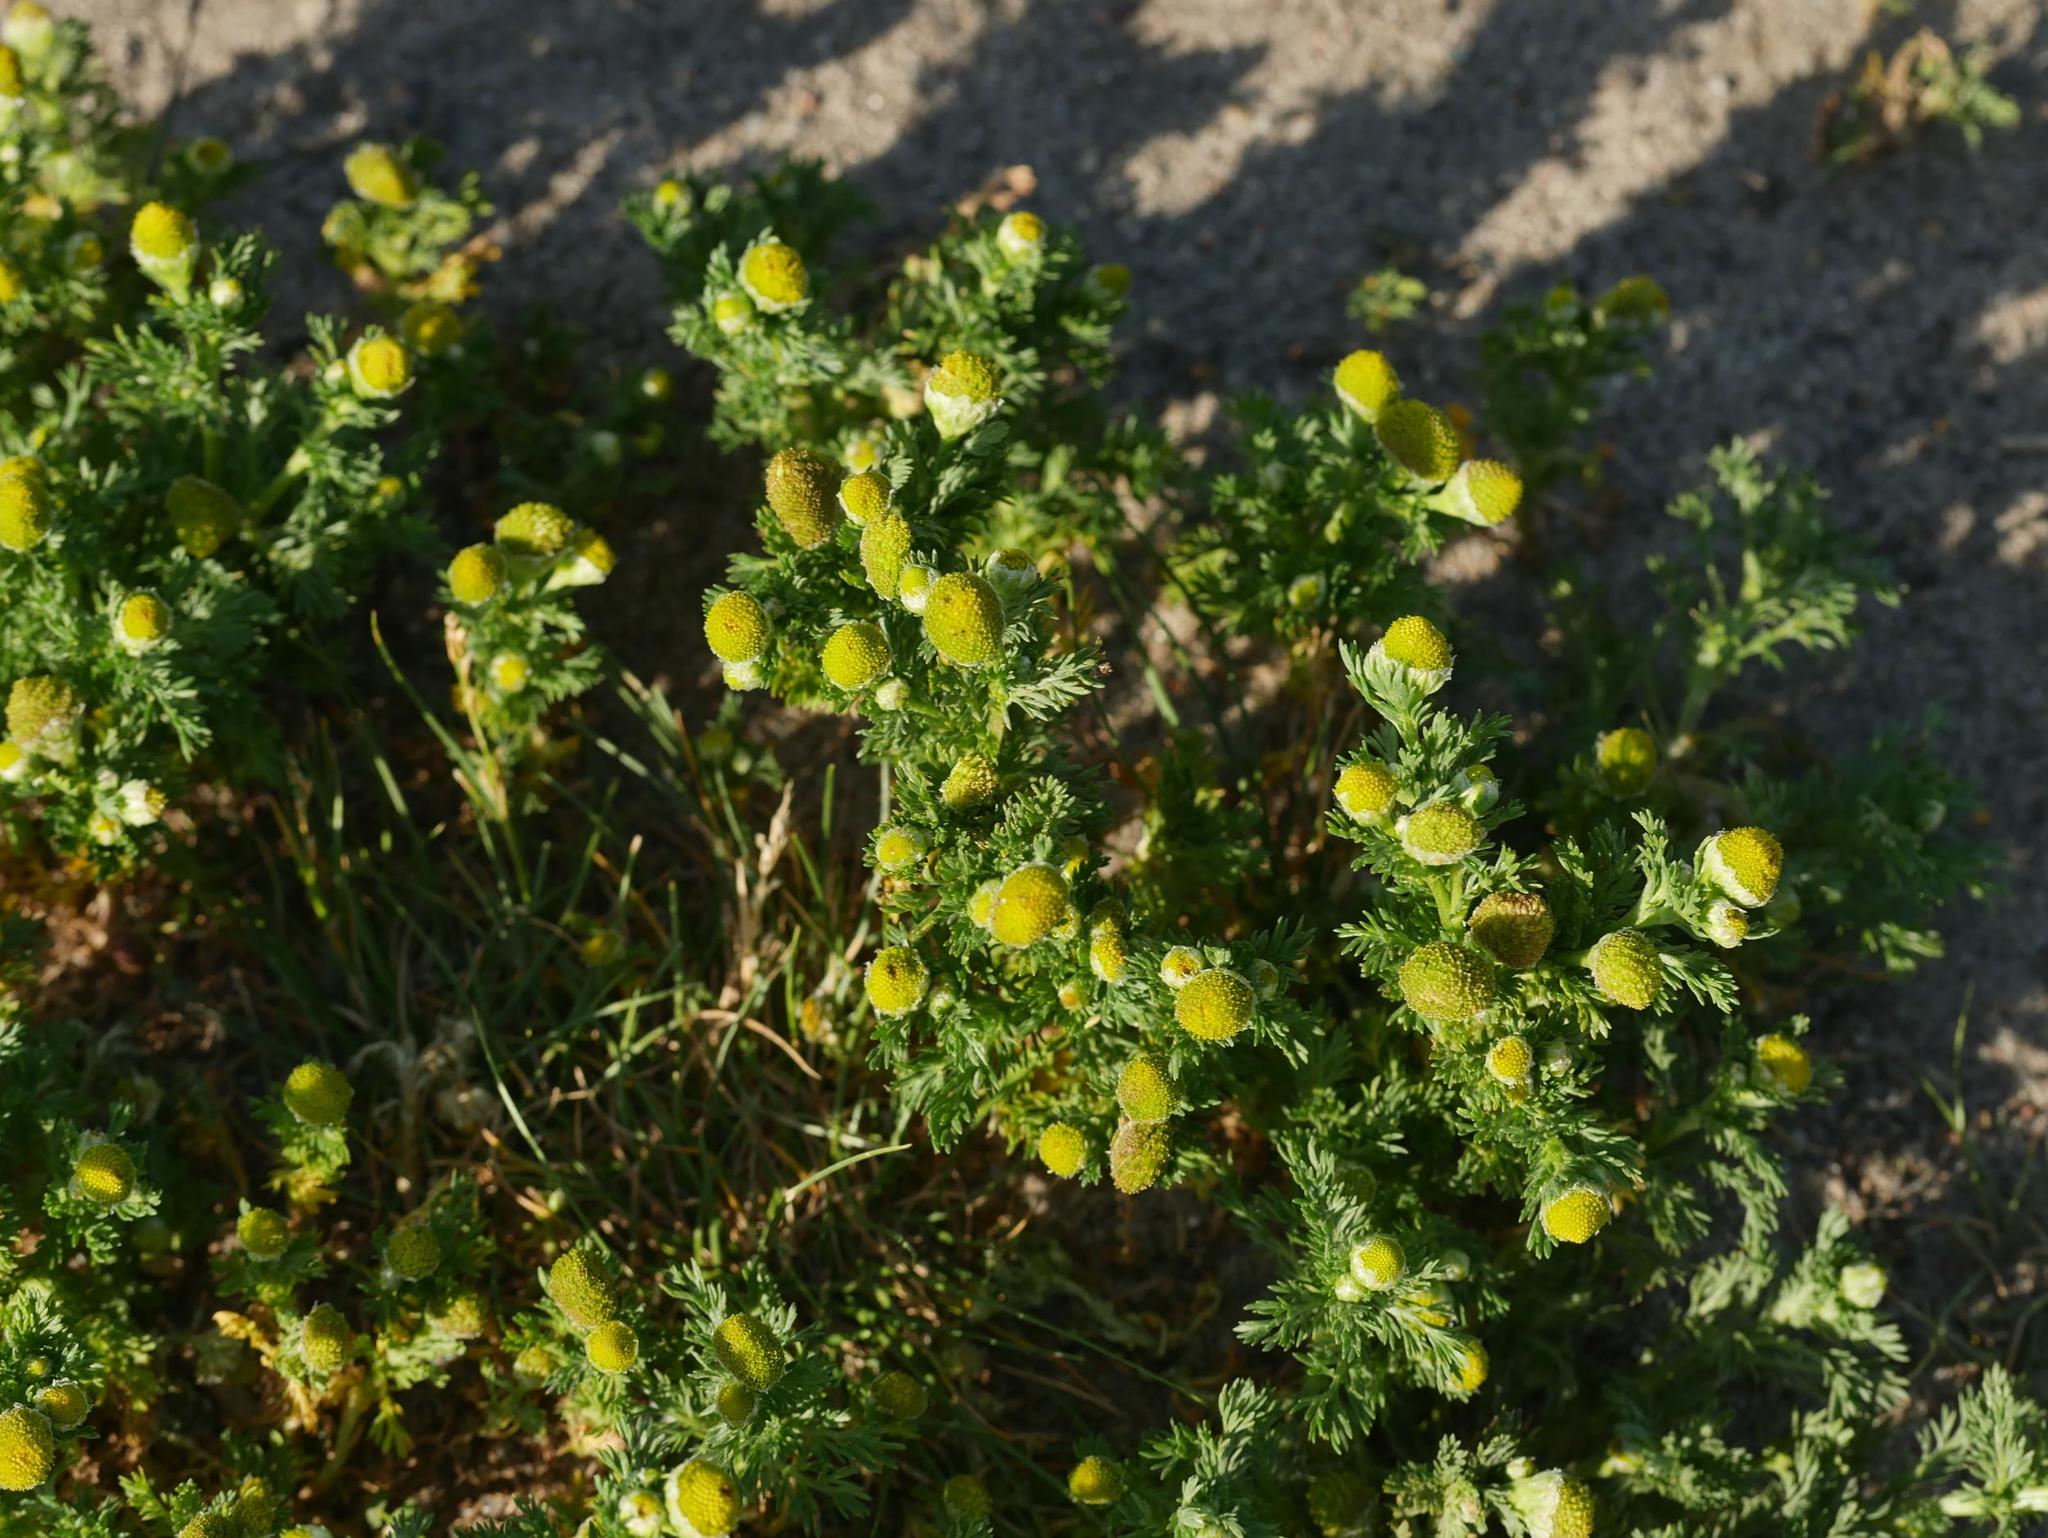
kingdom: Plantae
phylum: Tracheophyta
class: Magnoliopsida
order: Asterales
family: Asteraceae
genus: Matricaria
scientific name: Matricaria discoidea
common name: Disc mayweed
